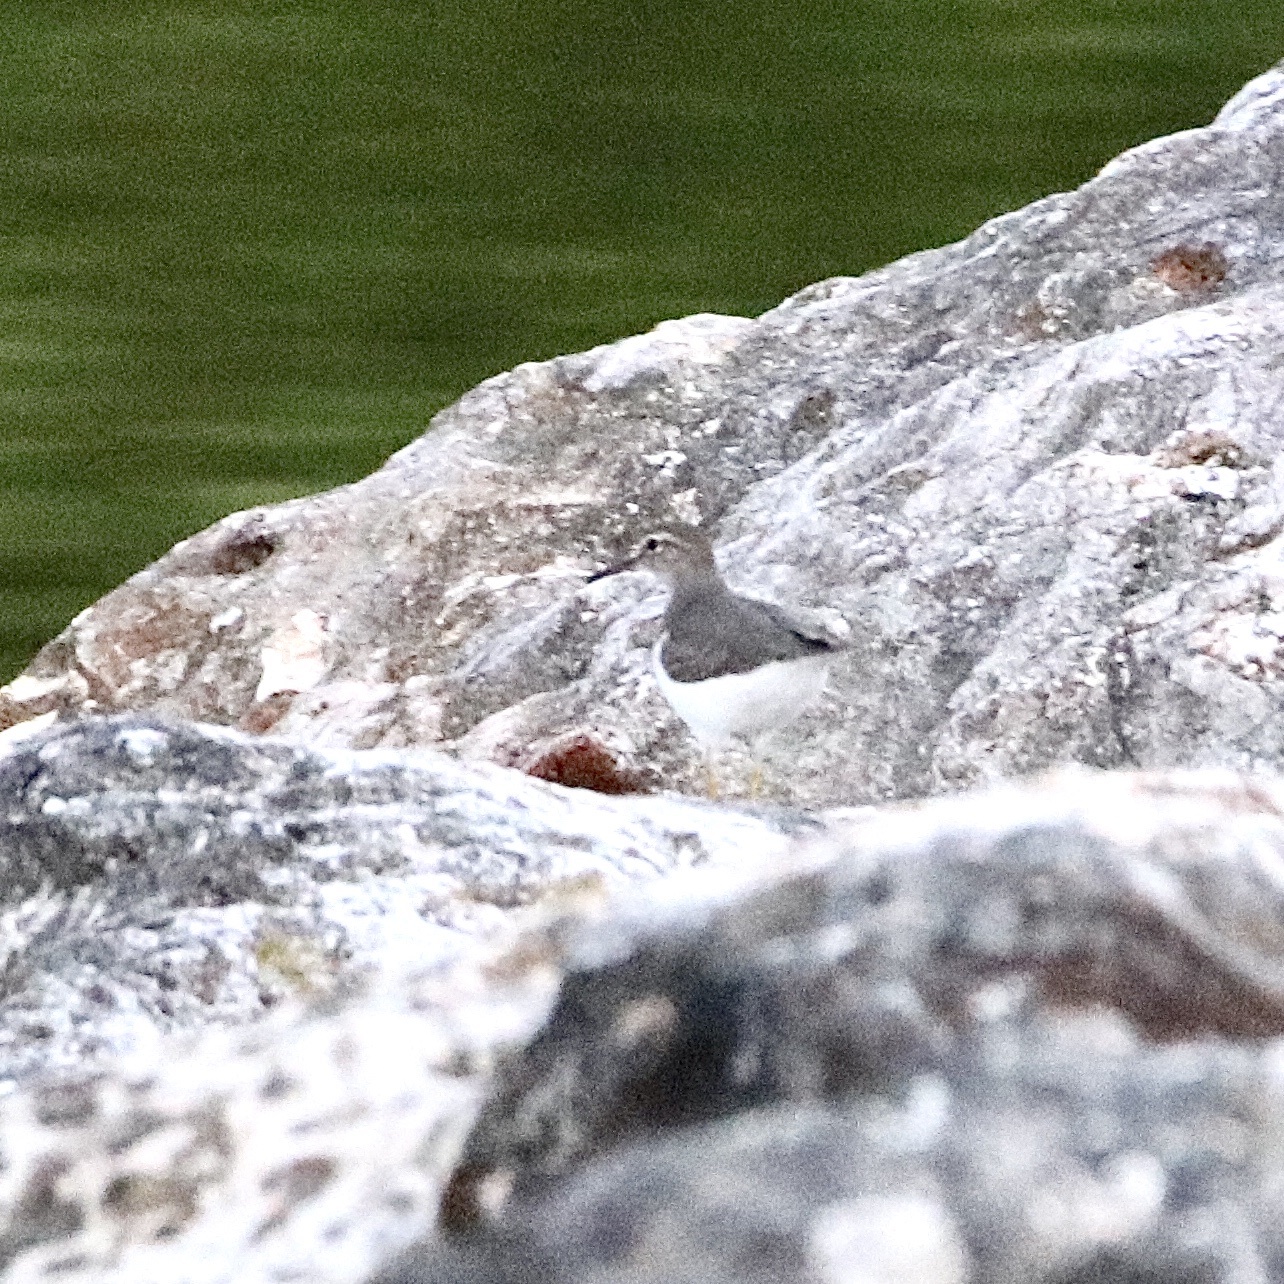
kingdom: Animalia
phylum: Chordata
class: Aves
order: Charadriiformes
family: Scolopacidae
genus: Actitis
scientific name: Actitis macularius
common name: Spotted sandpiper
